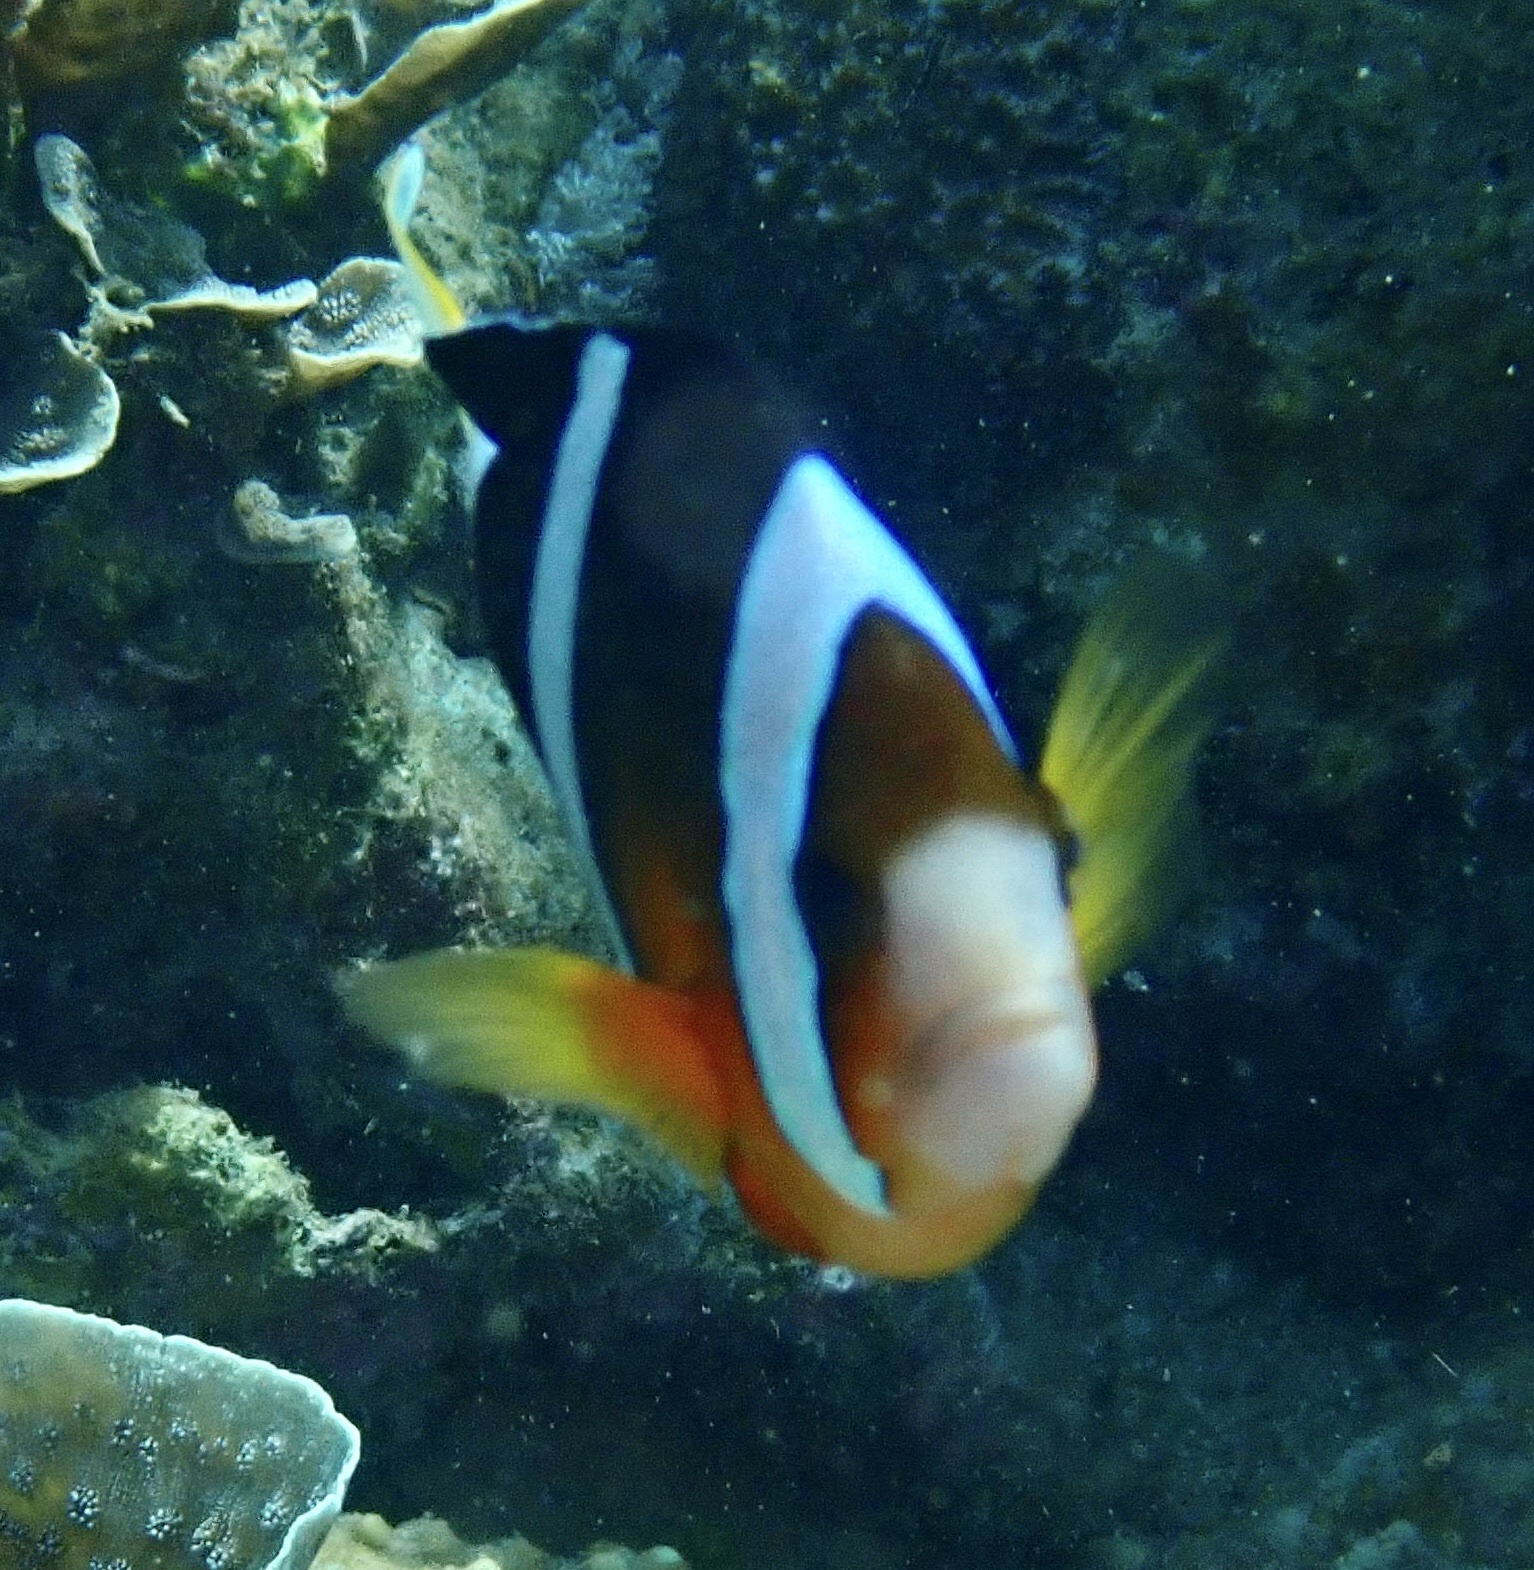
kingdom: Animalia
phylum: Chordata
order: Perciformes
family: Pomacentridae
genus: Amphiprion
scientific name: Amphiprion clarkii
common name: Clark's anemonefish
